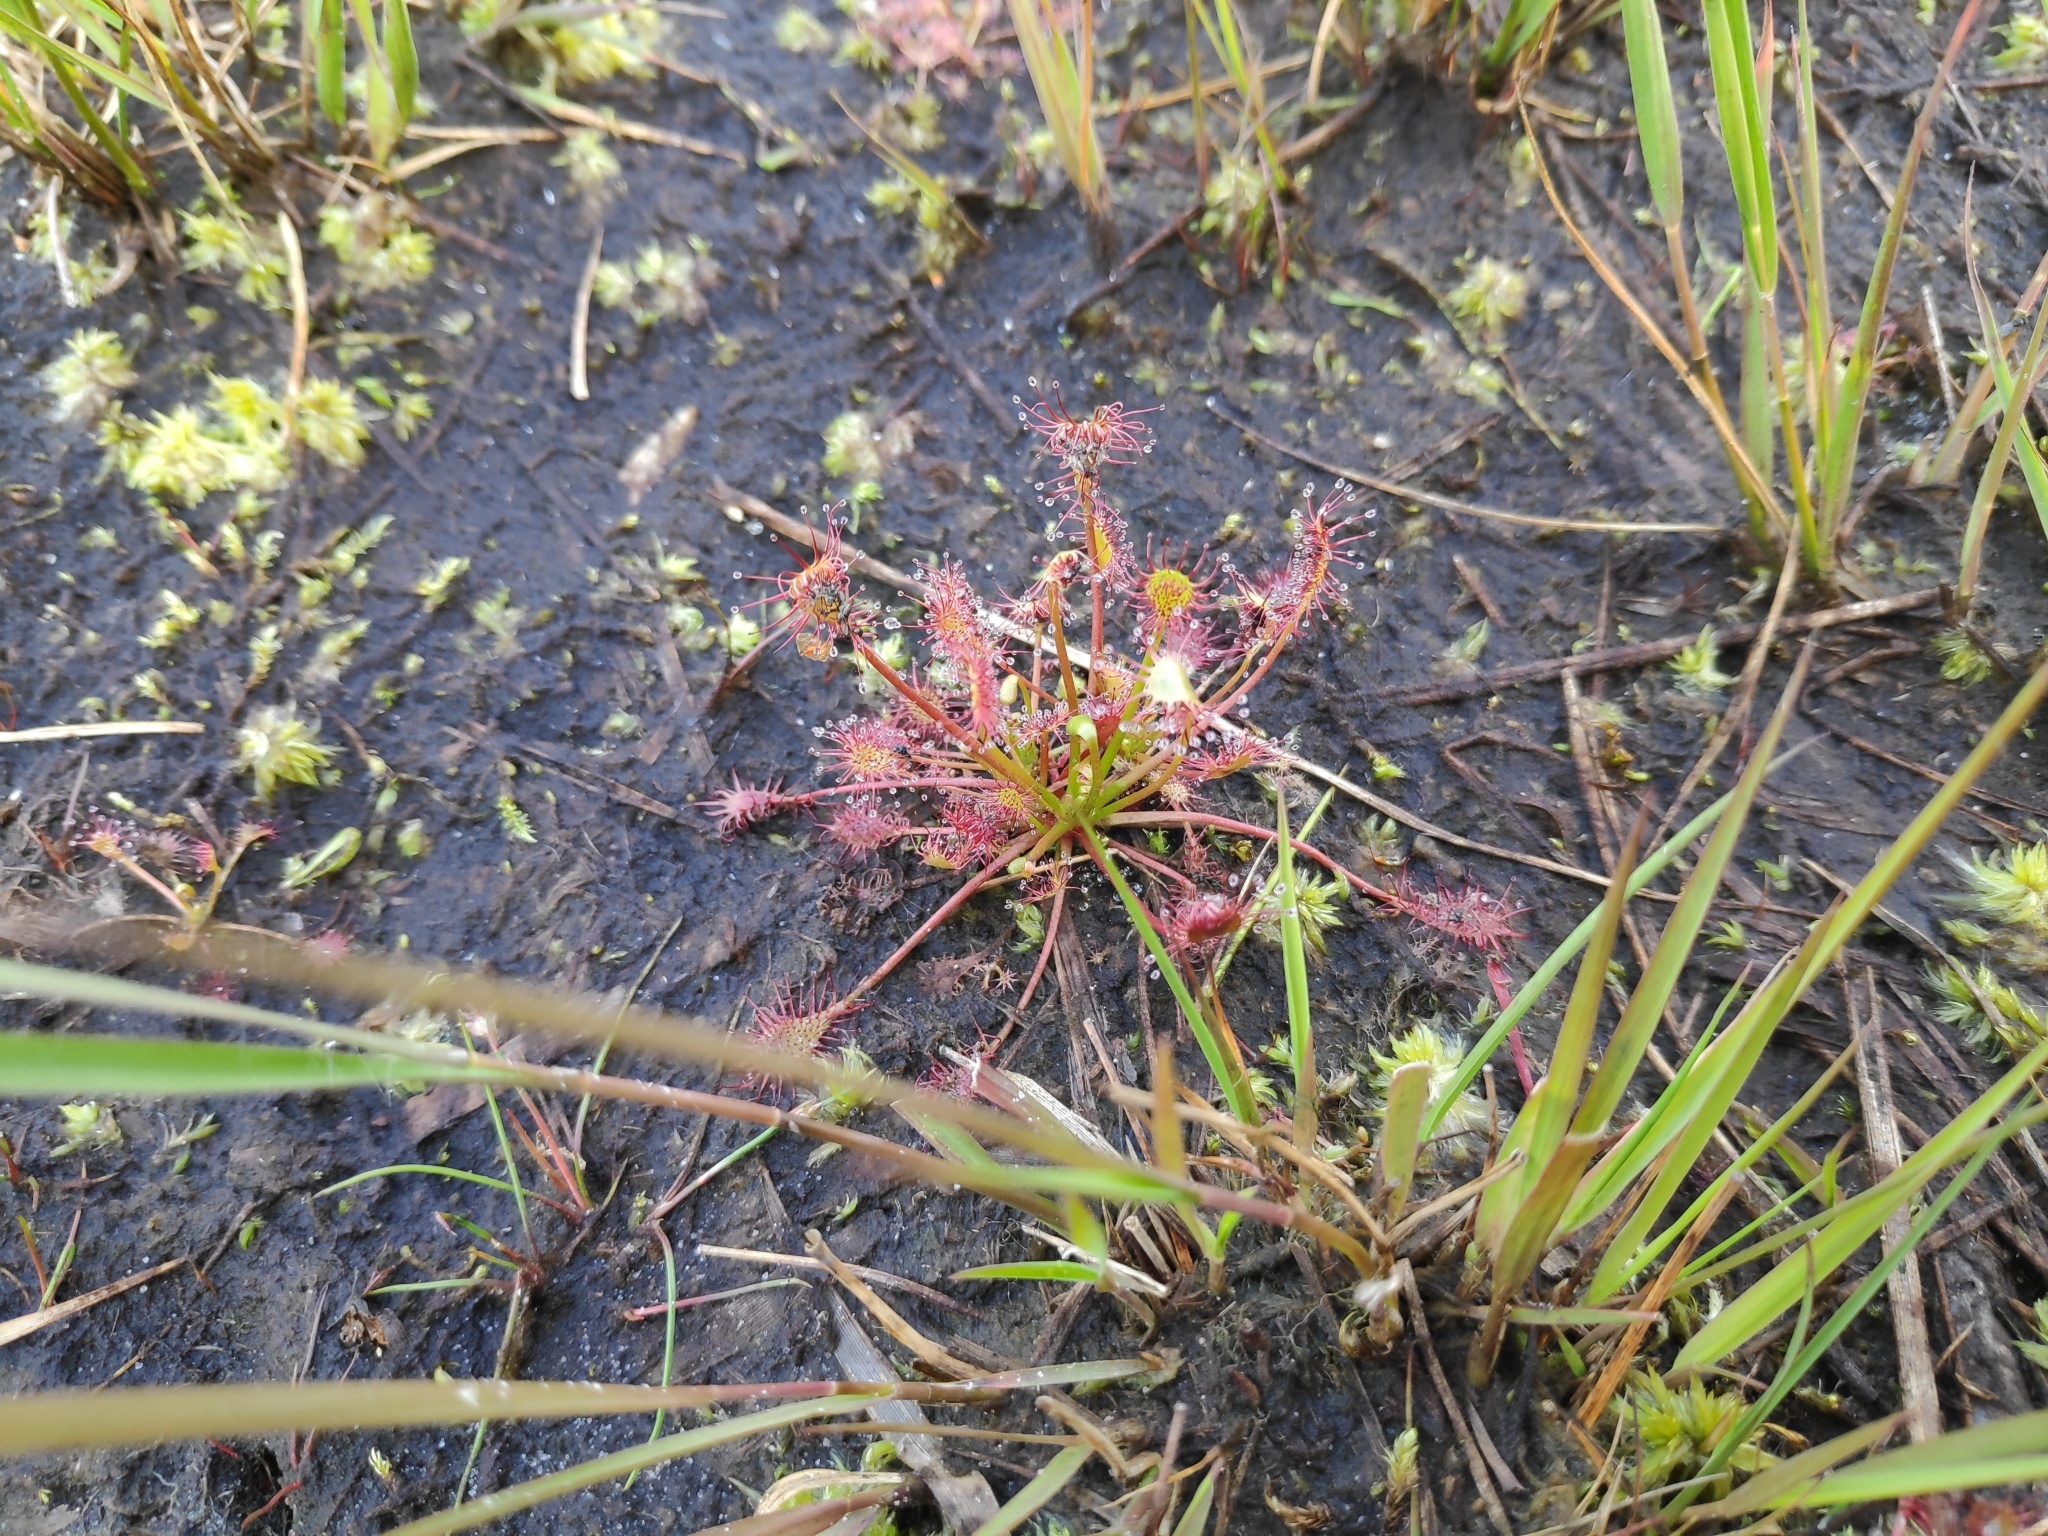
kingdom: Plantae
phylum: Tracheophyta
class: Magnoliopsida
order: Caryophyllales
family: Droseraceae
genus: Drosera
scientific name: Drosera intermedia
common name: Oblong-leaved sundew
